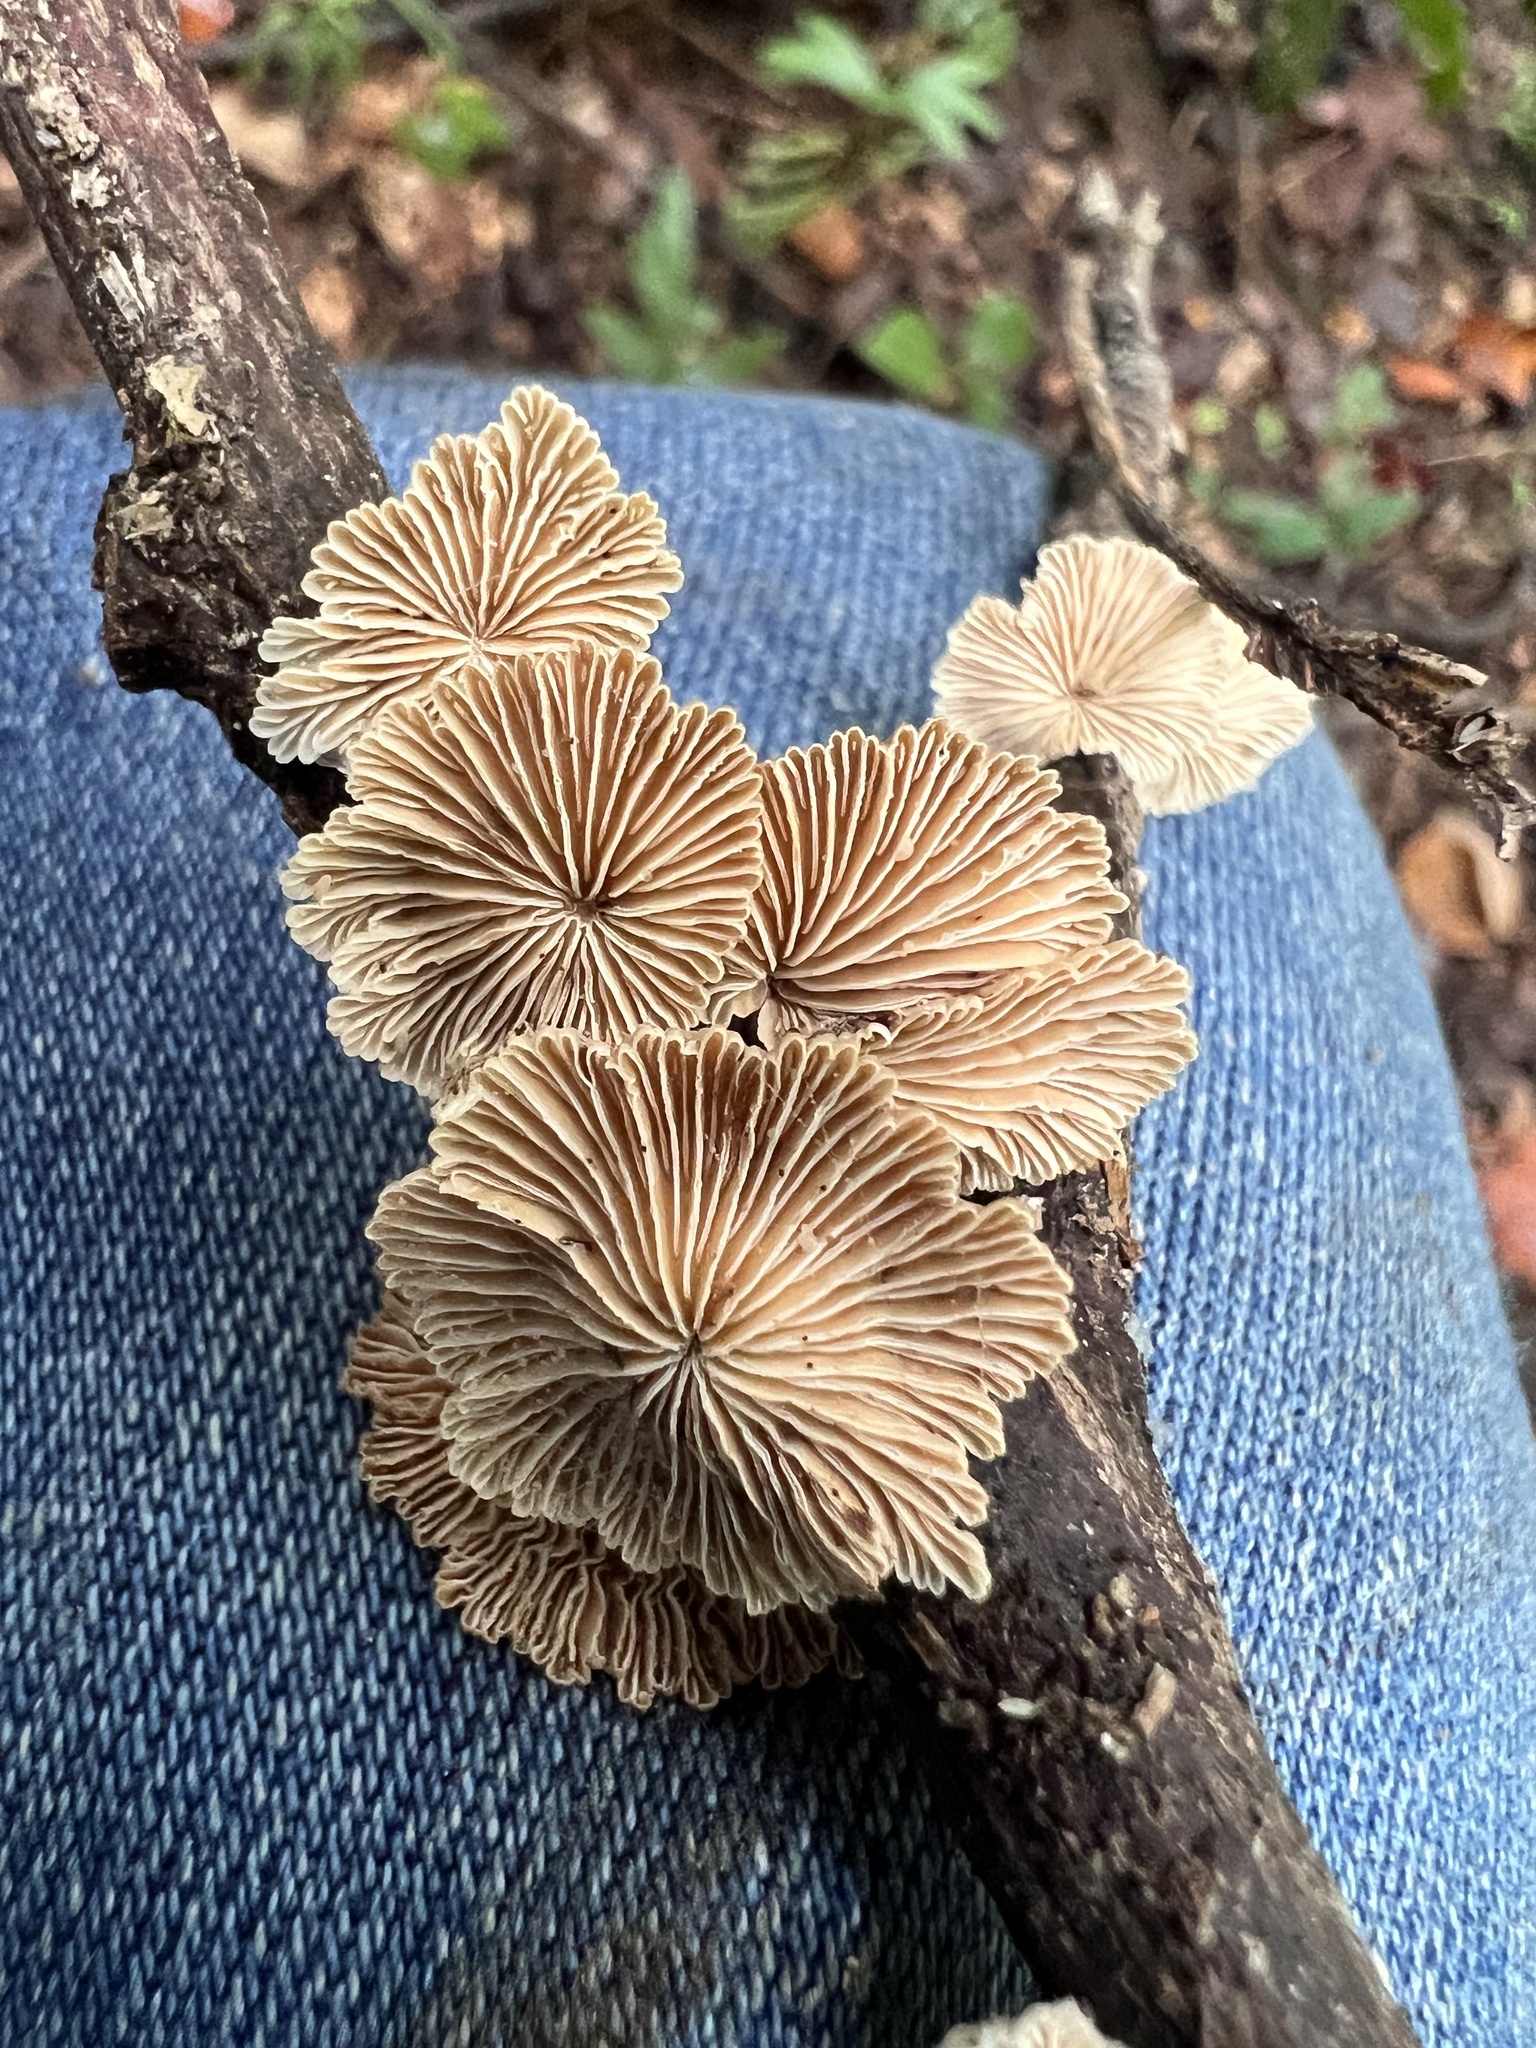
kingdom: Fungi
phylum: Basidiomycota
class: Agaricomycetes
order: Agaricales
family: Schizophyllaceae
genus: Schizophyllum
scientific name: Schizophyllum commune
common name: Common porecrust
